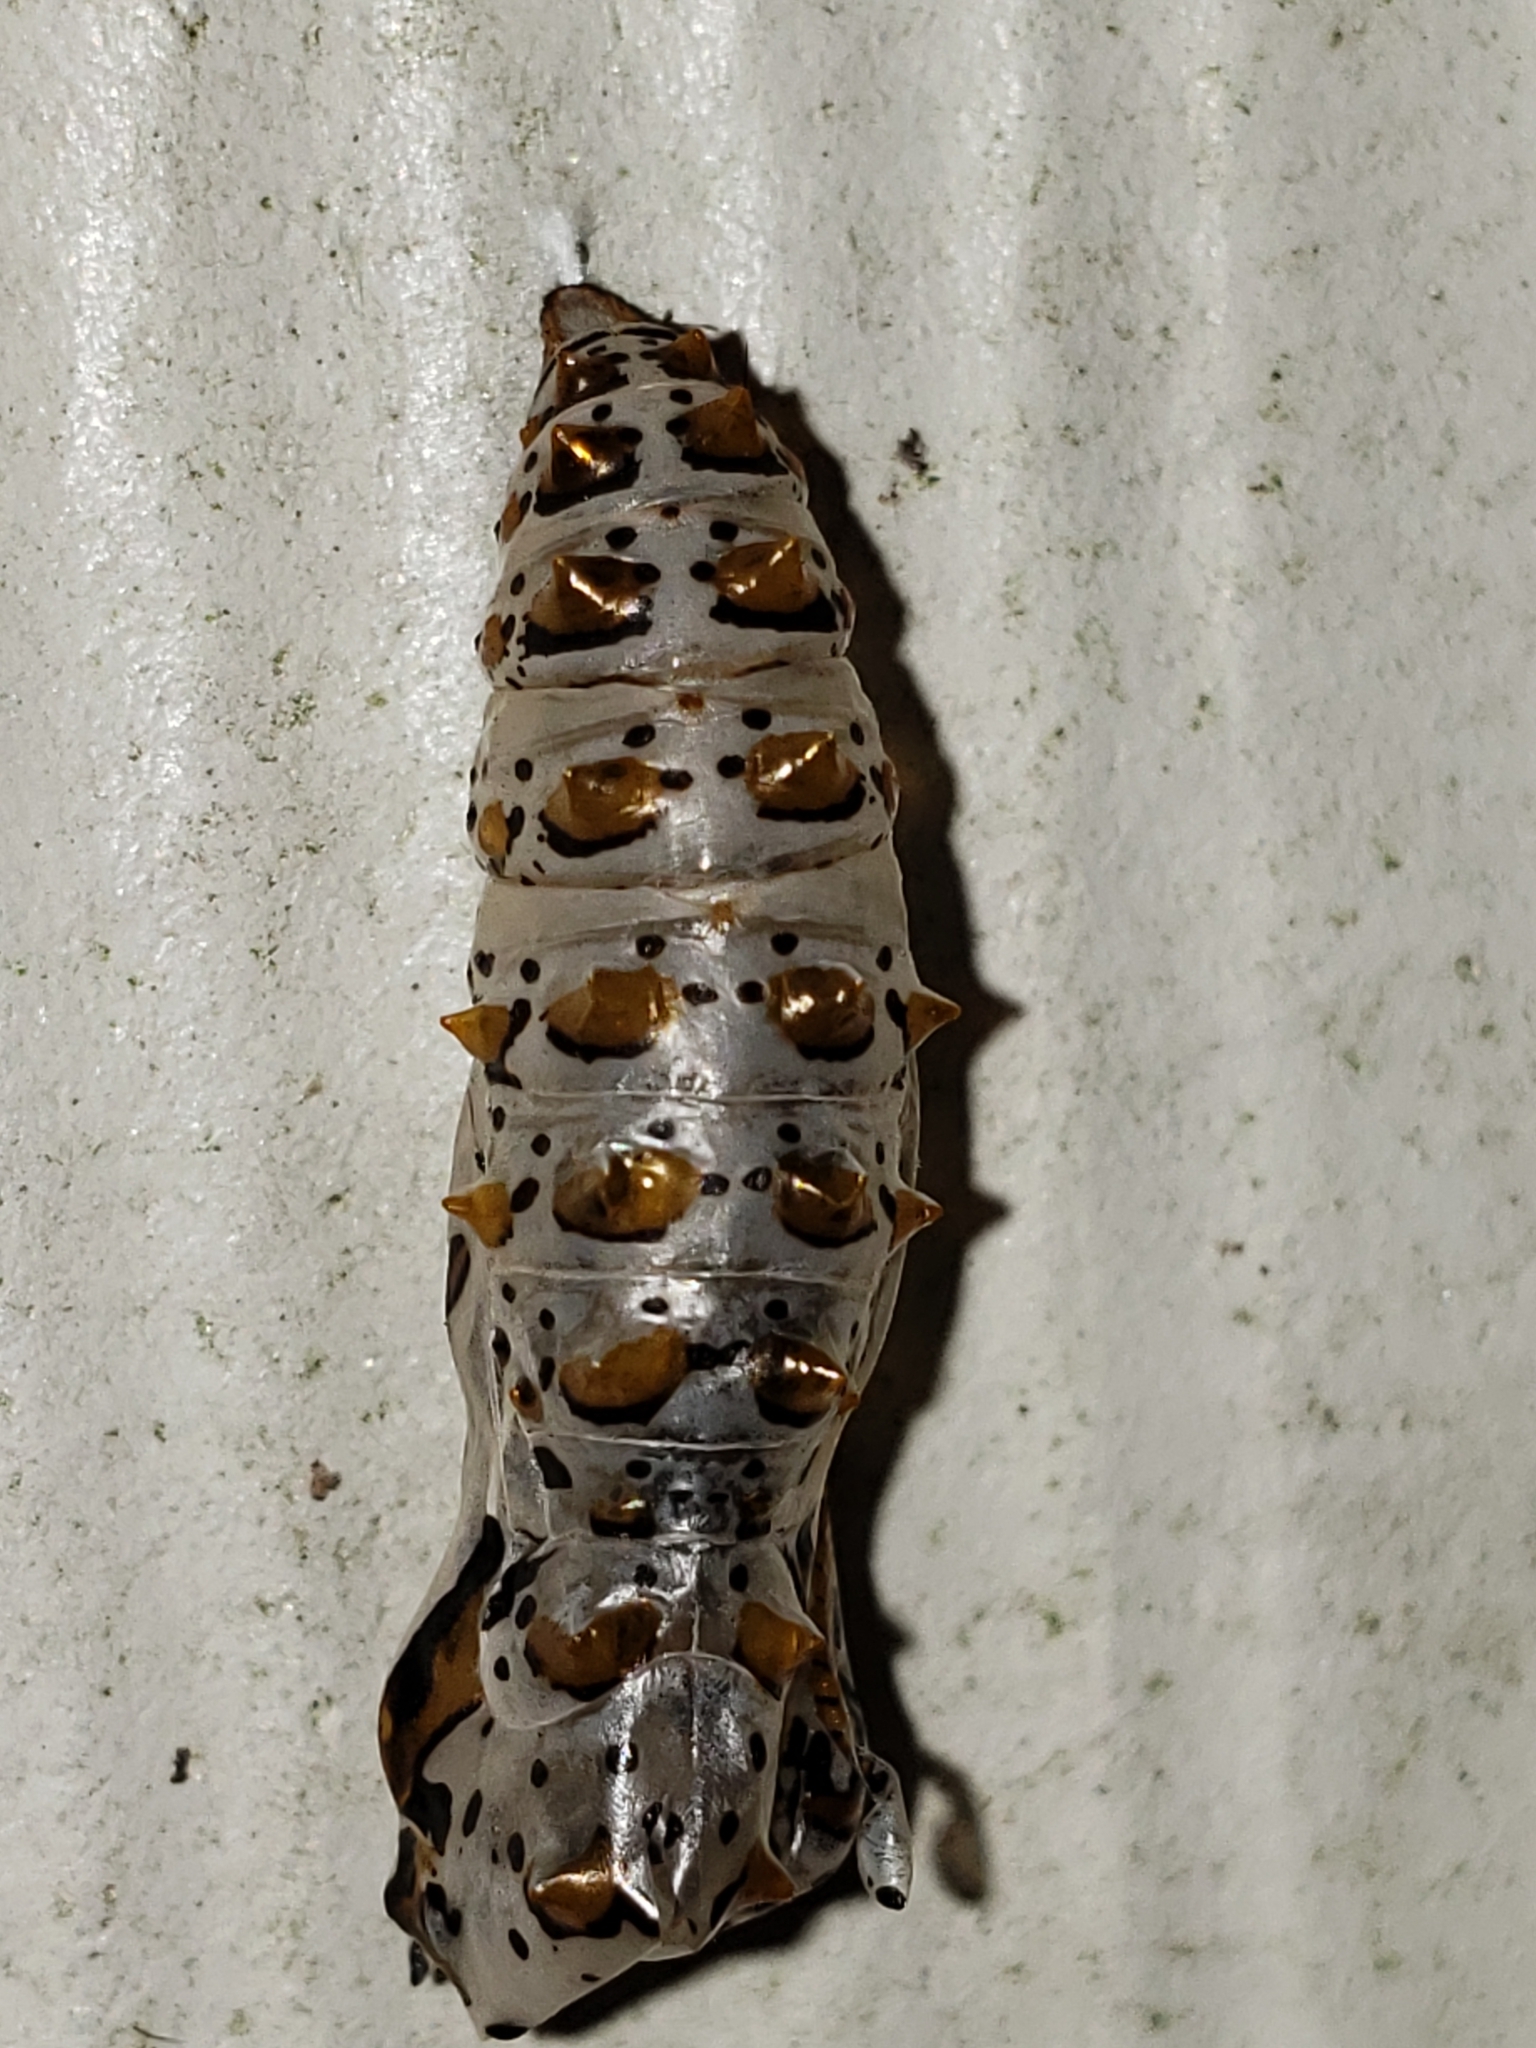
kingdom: Animalia
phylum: Arthropoda
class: Insecta
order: Lepidoptera
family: Nymphalidae
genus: Euptoieta
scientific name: Euptoieta claudia
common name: Variegated fritillary
